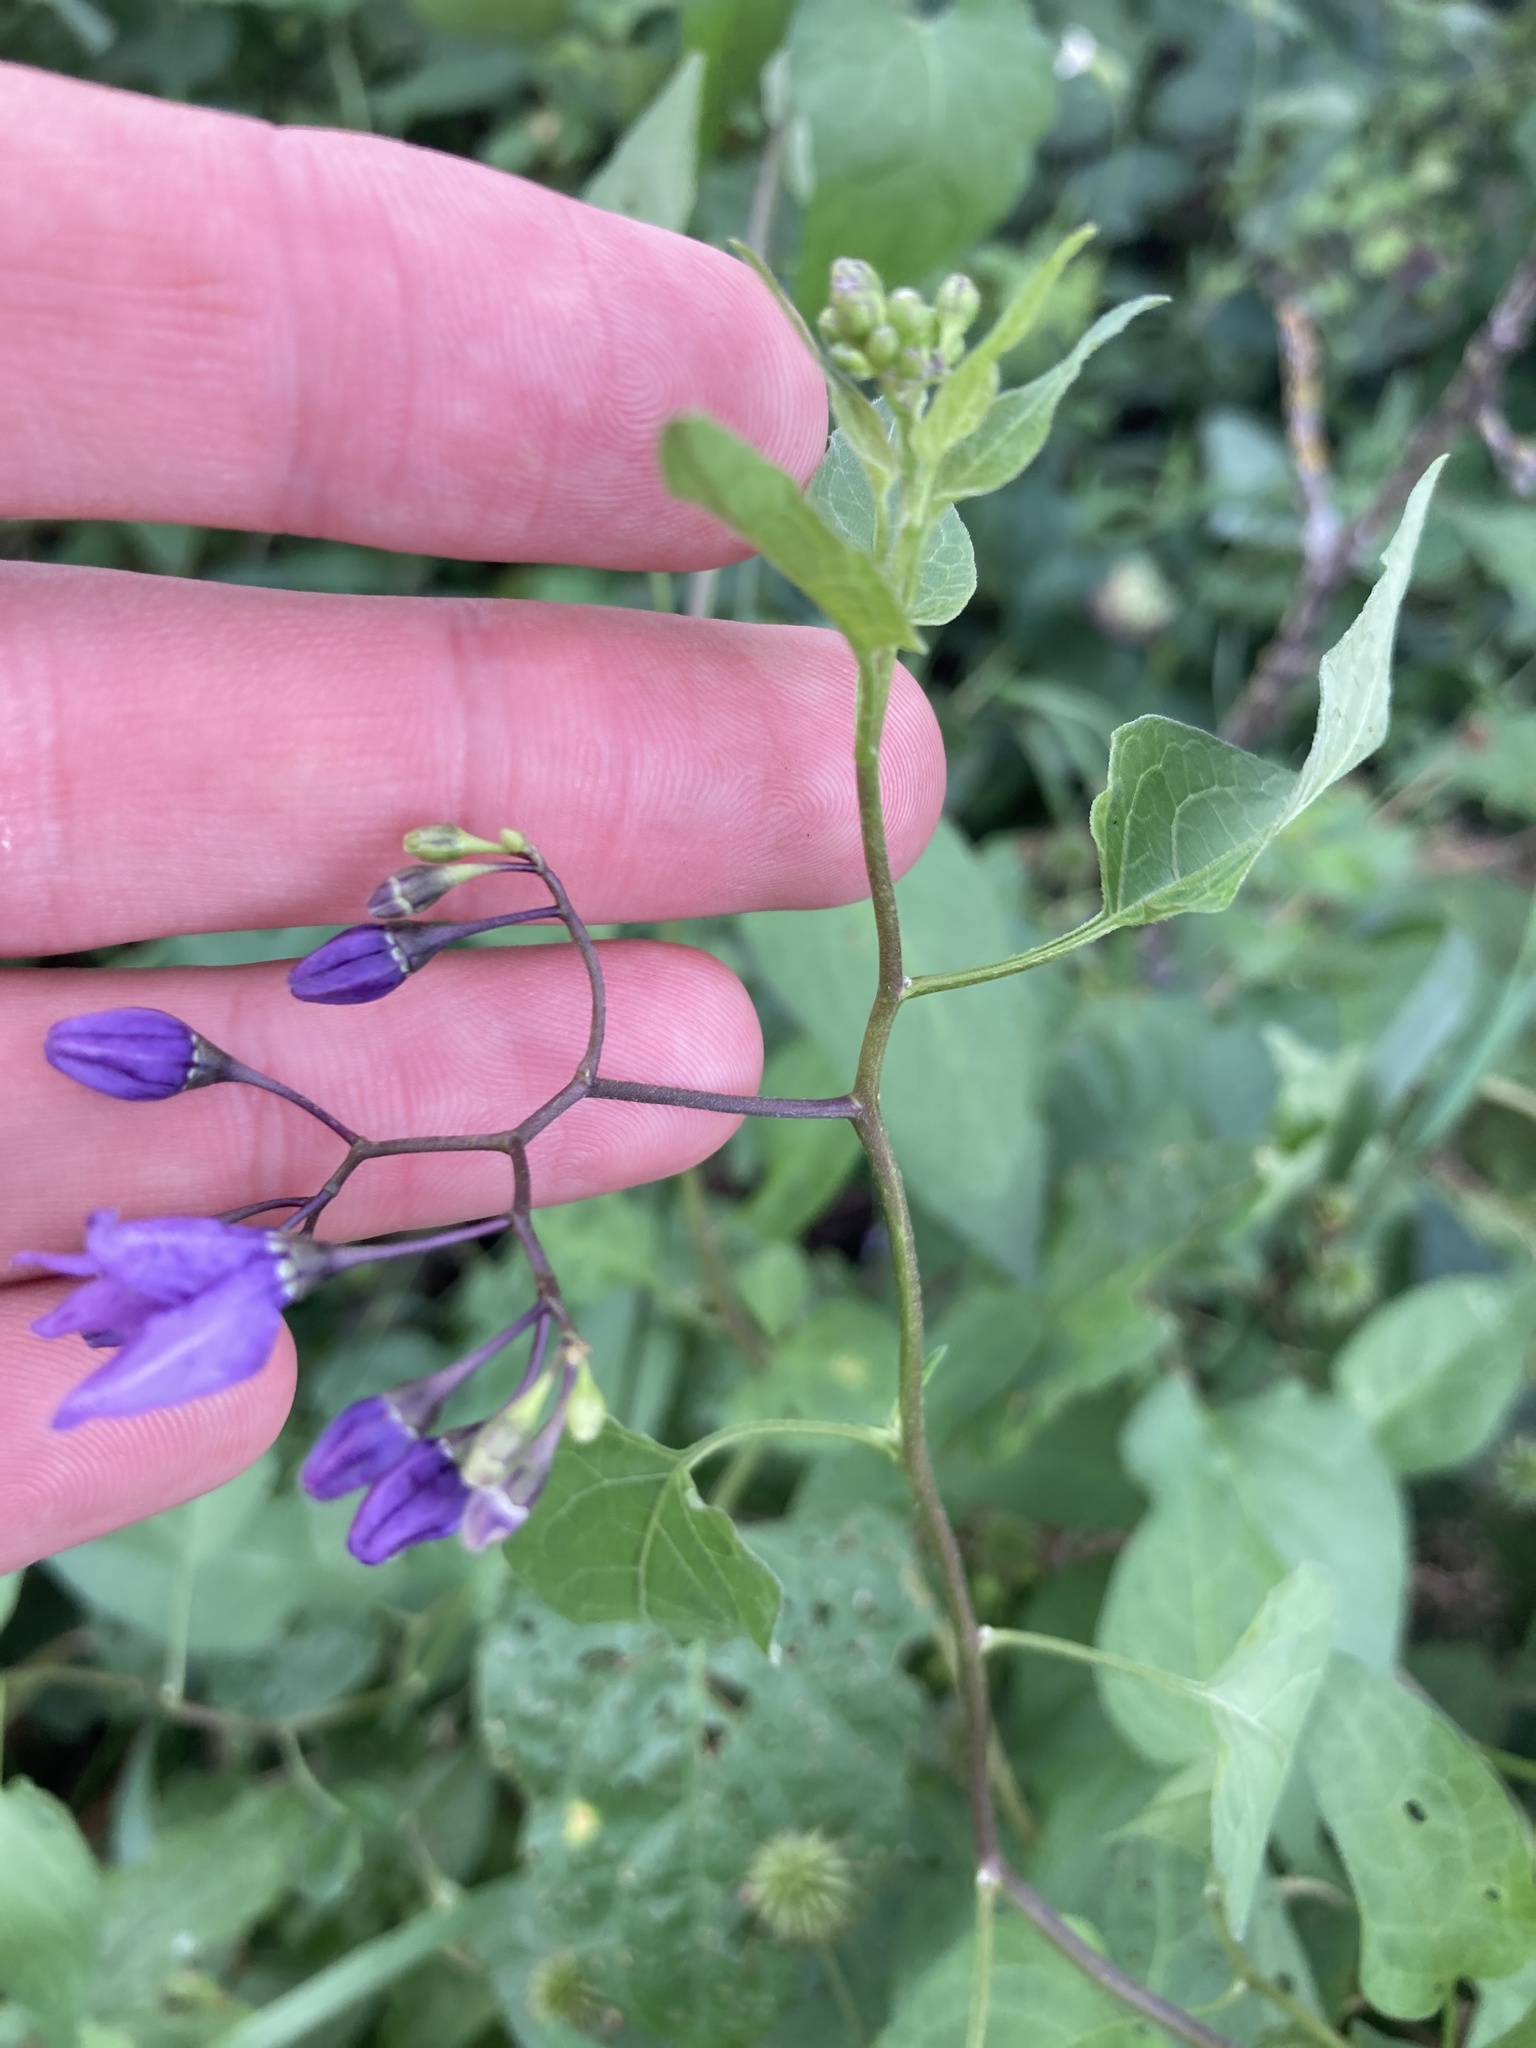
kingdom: Plantae
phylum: Tracheophyta
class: Magnoliopsida
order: Solanales
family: Solanaceae
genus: Solanum
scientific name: Solanum dulcamara
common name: Climbing nightshade
